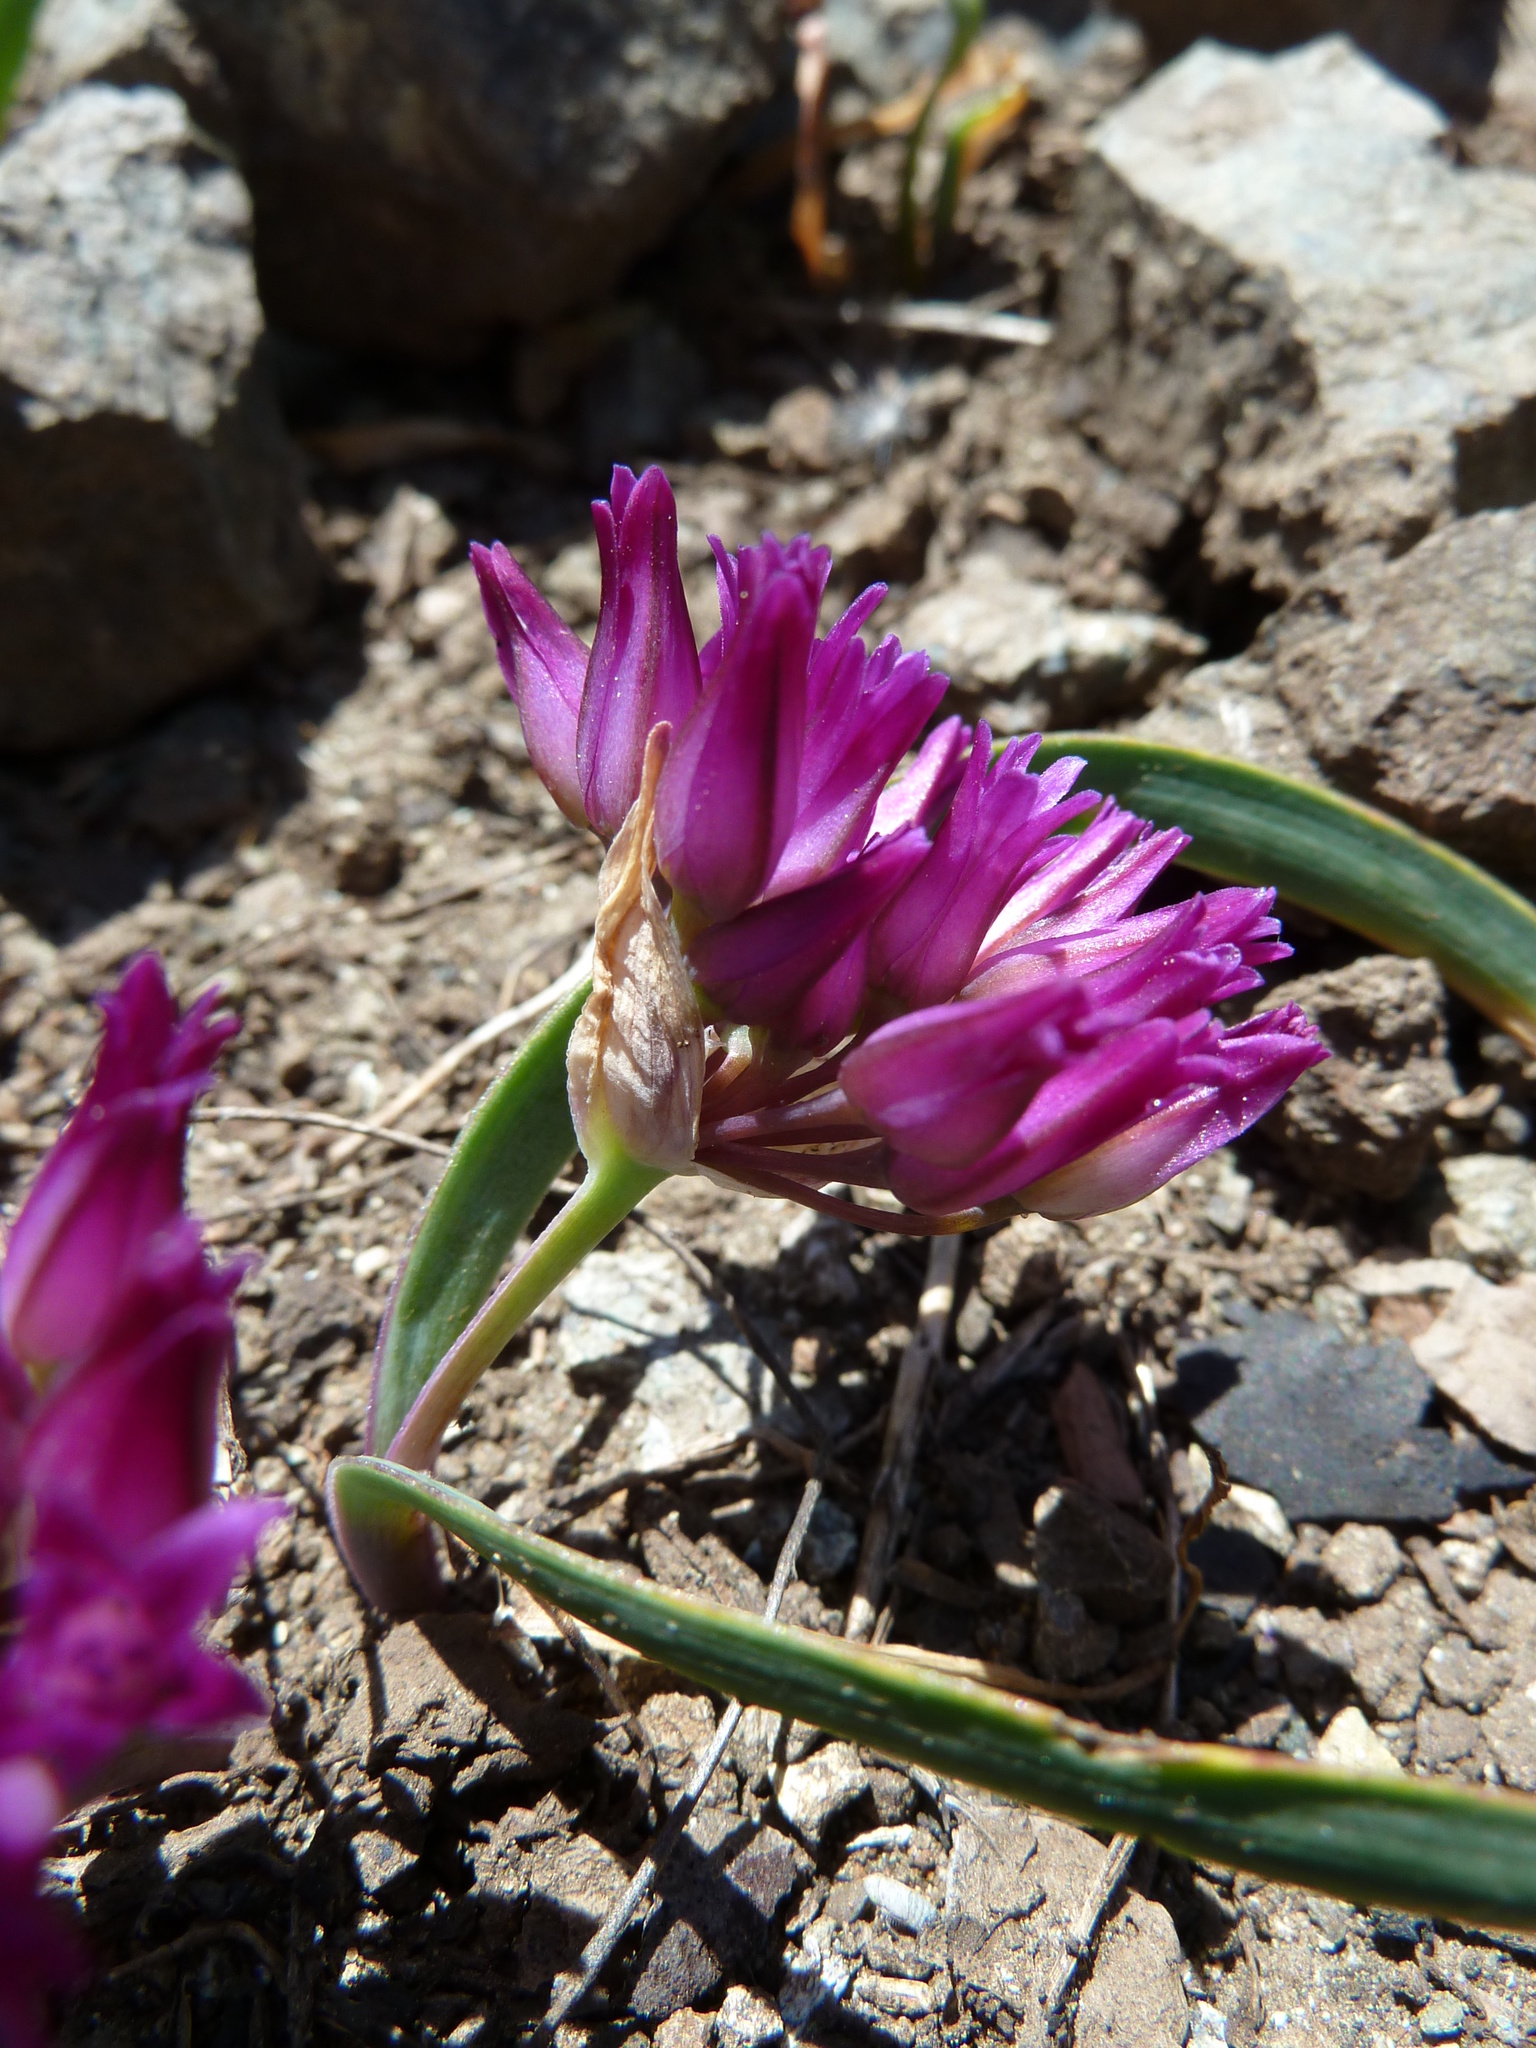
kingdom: Plantae
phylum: Tracheophyta
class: Liliopsida
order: Asparagales
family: Amaryllidaceae
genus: Allium
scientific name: Allium falcifolium
